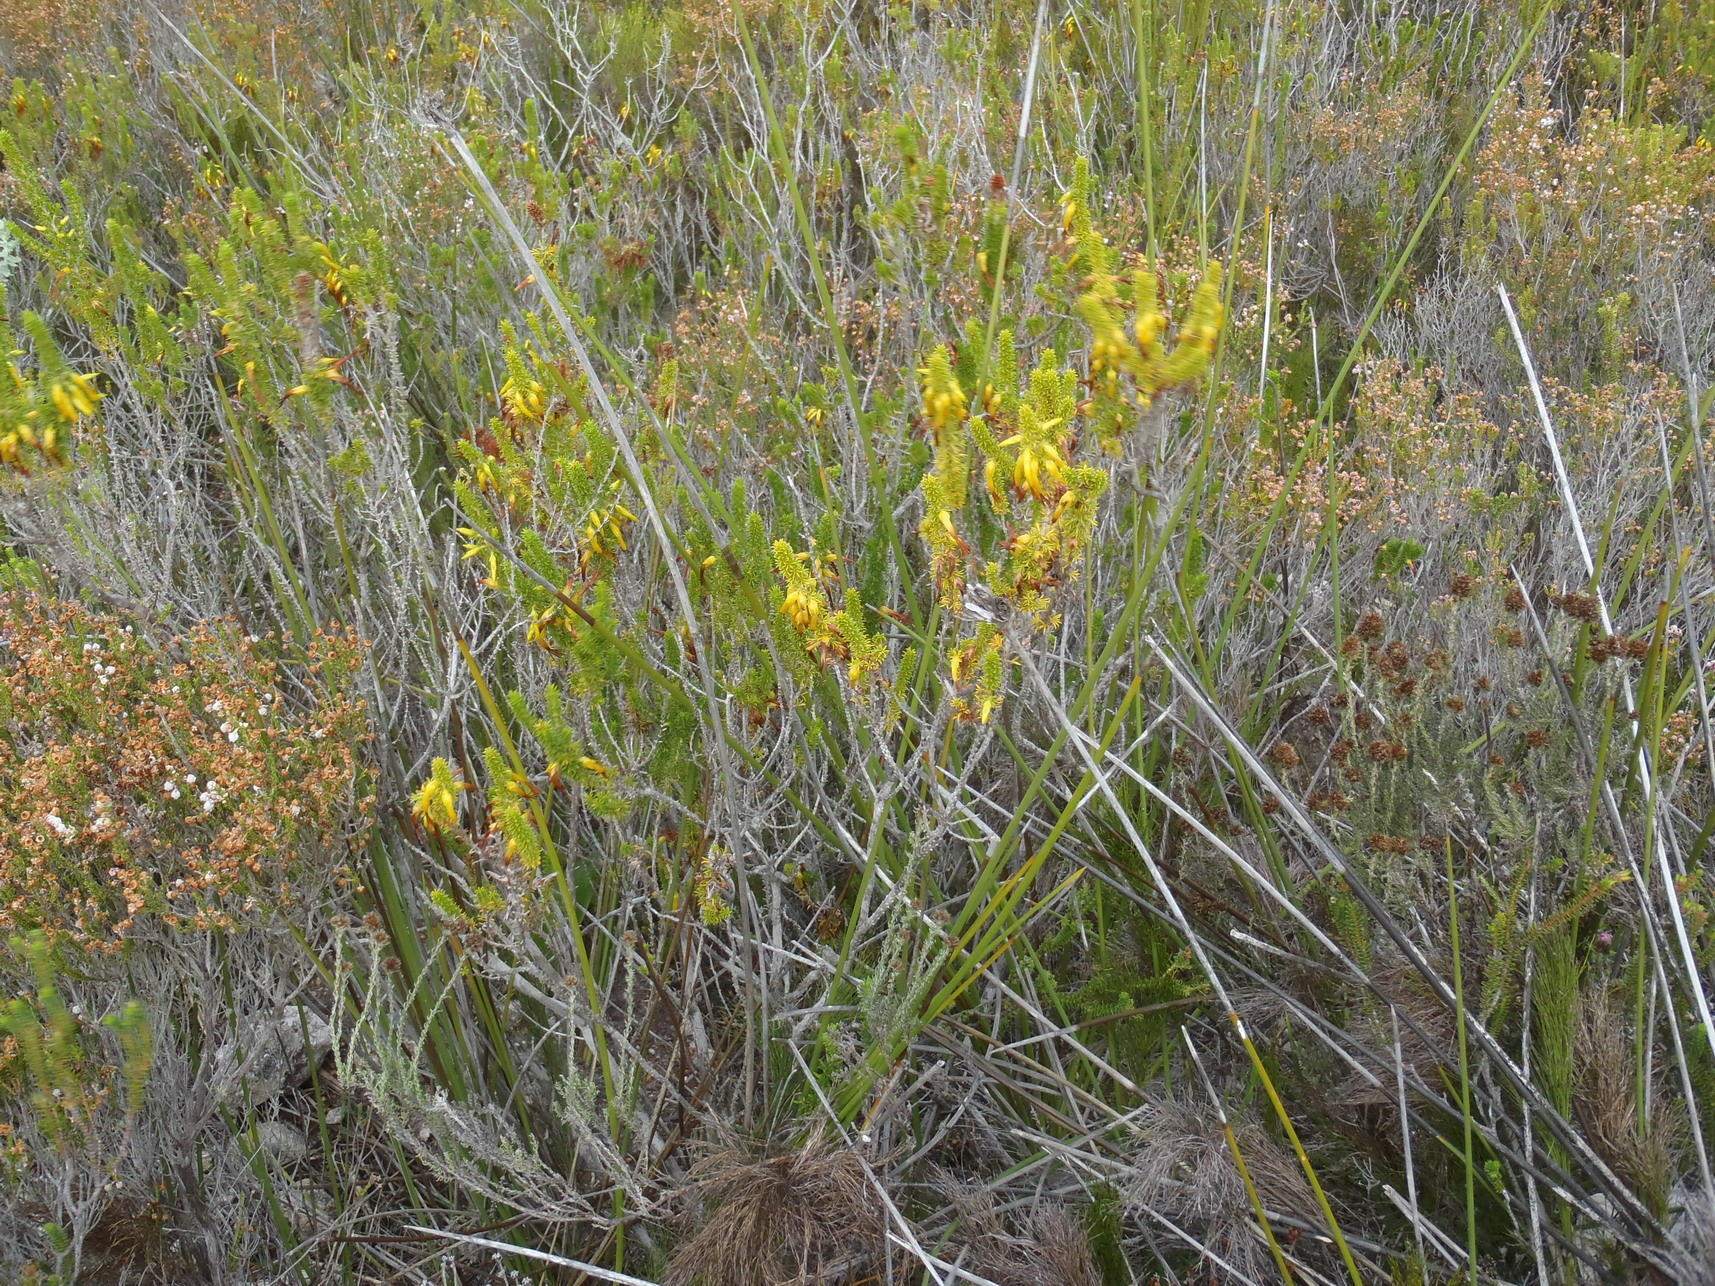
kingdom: Plantae
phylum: Tracheophyta
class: Magnoliopsida
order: Ericales
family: Ericaceae
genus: Erica
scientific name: Erica coccinea
